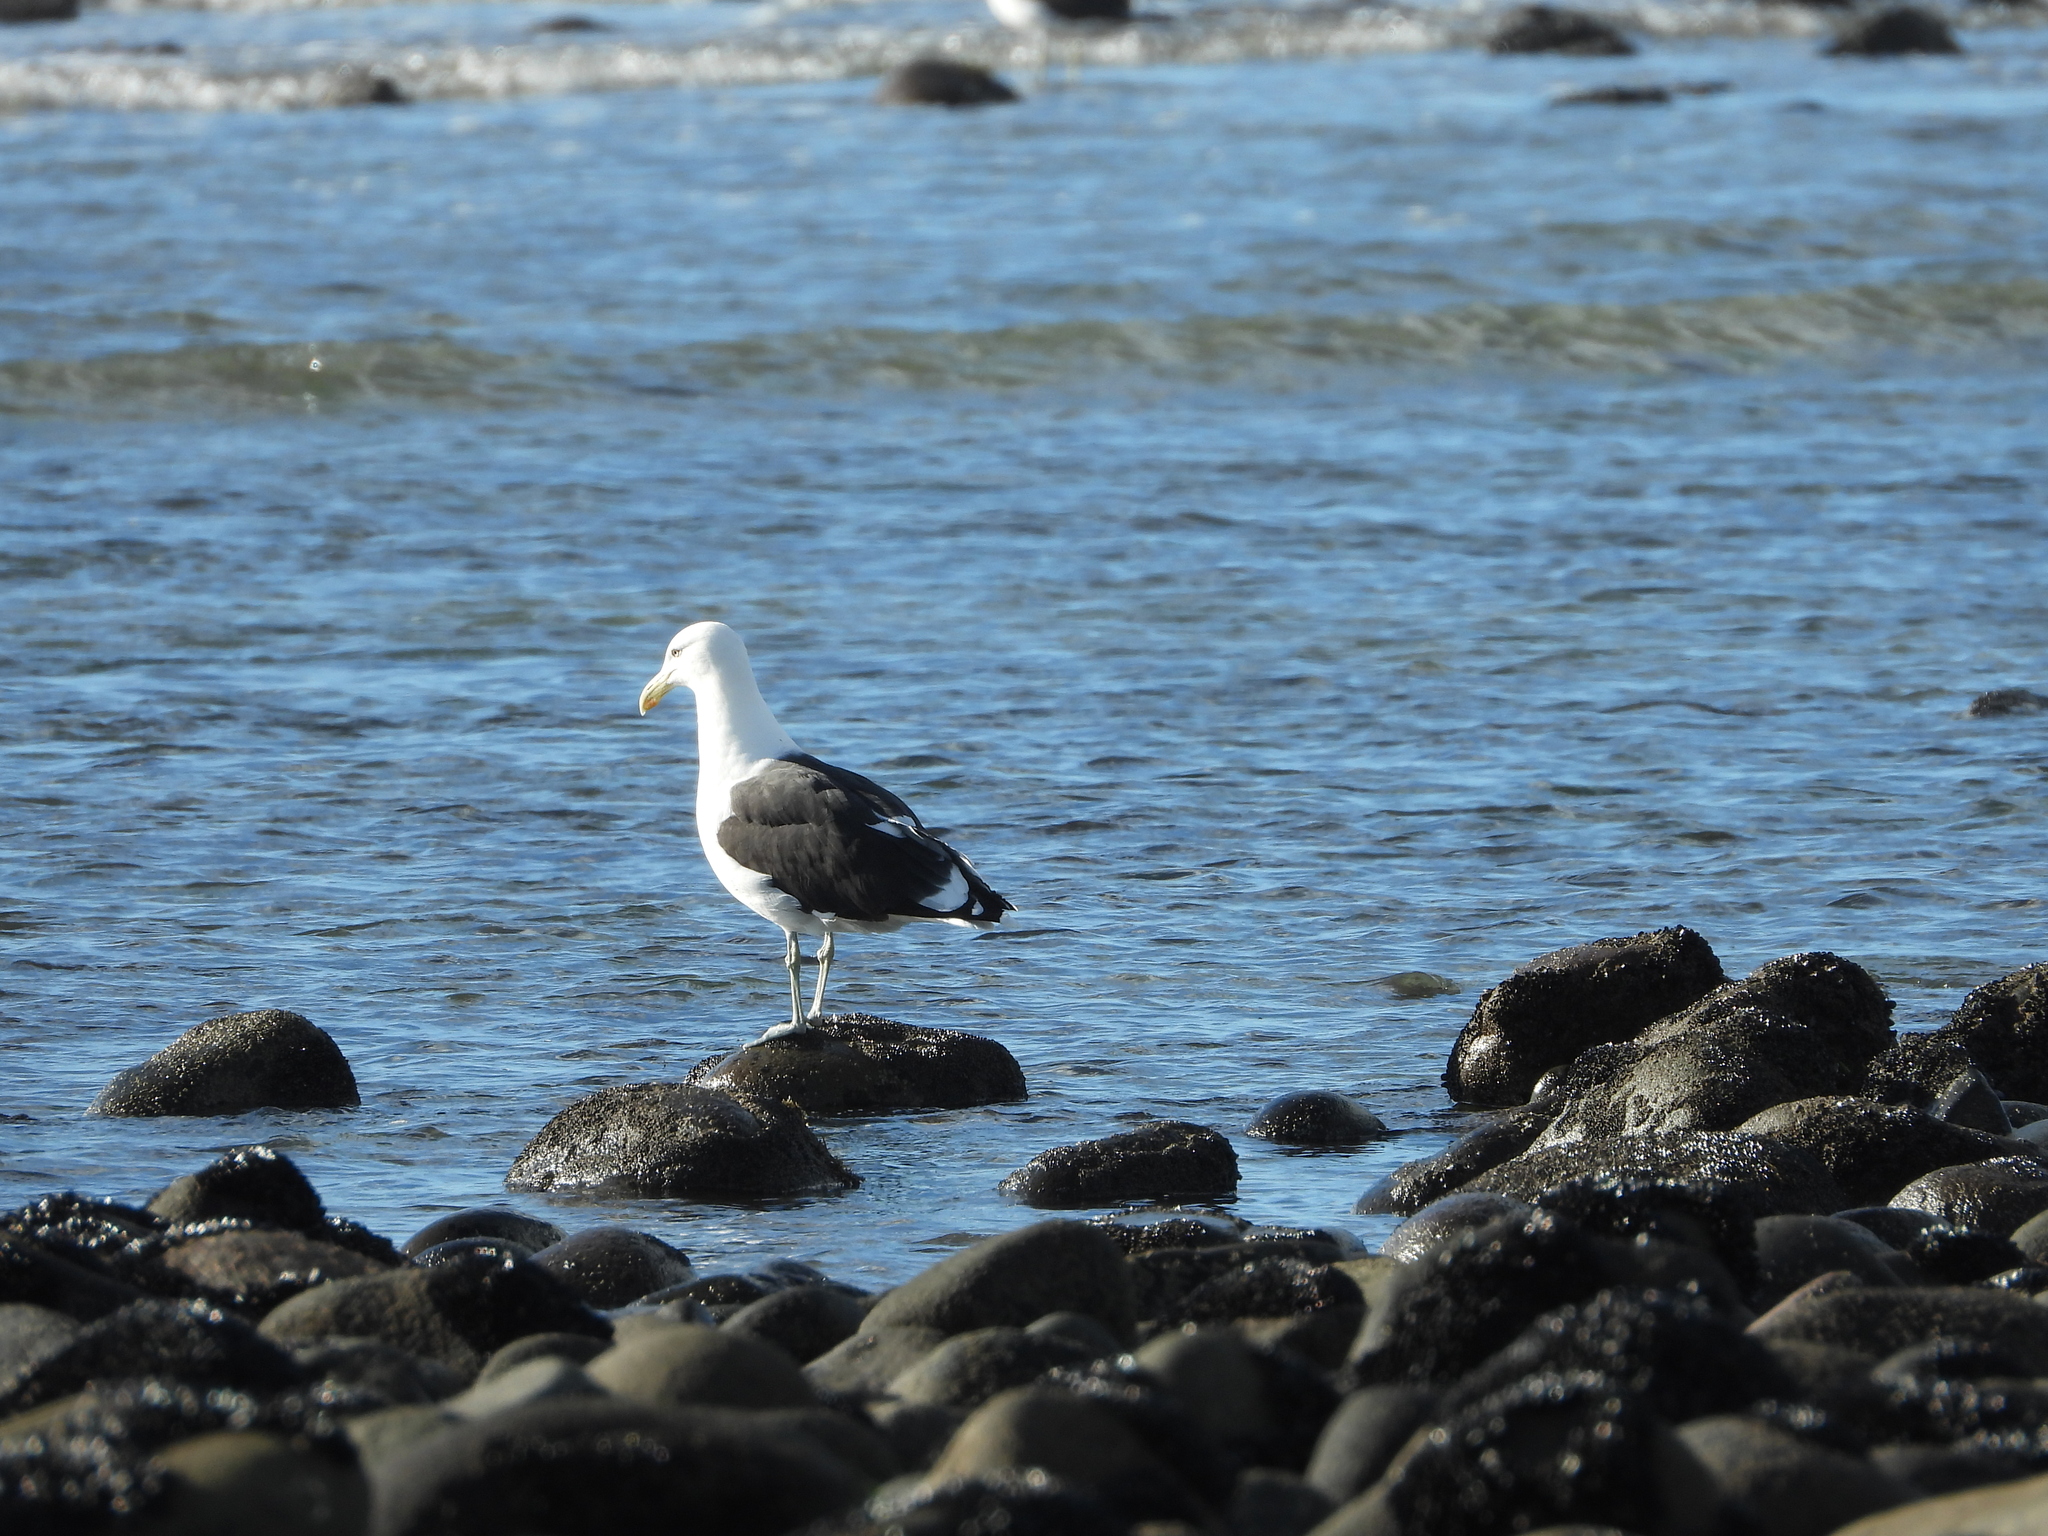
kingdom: Animalia
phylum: Chordata
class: Aves
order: Charadriiformes
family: Laridae
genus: Larus
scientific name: Larus dominicanus
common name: Kelp gull
